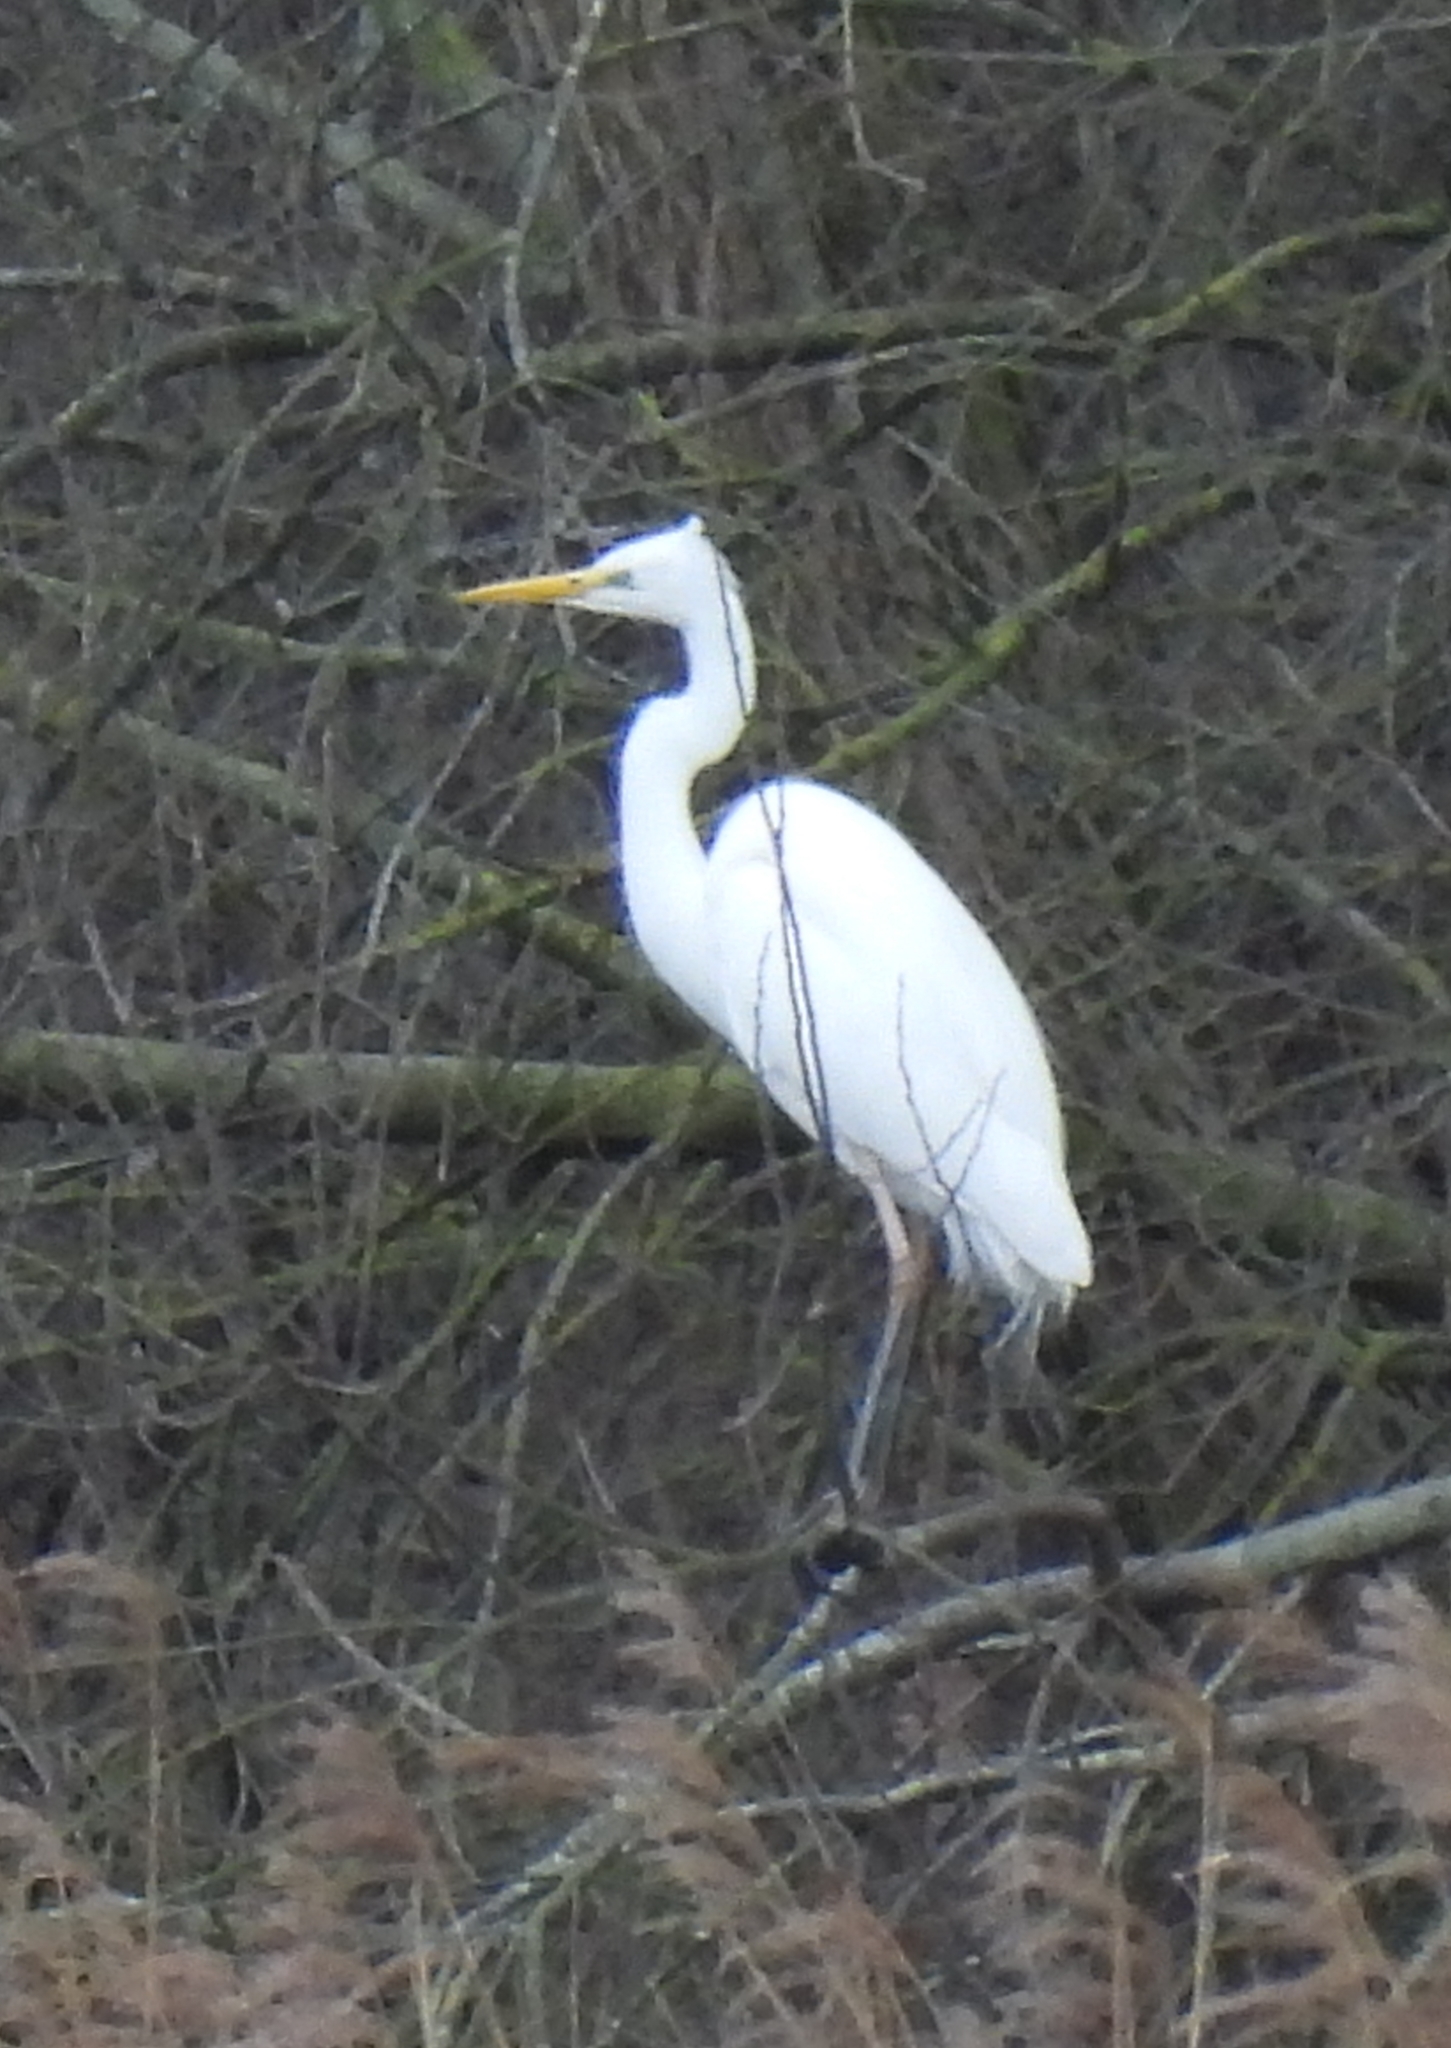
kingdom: Animalia
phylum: Chordata
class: Aves
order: Pelecaniformes
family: Ardeidae
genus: Ardea
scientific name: Ardea alba
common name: Great egret
